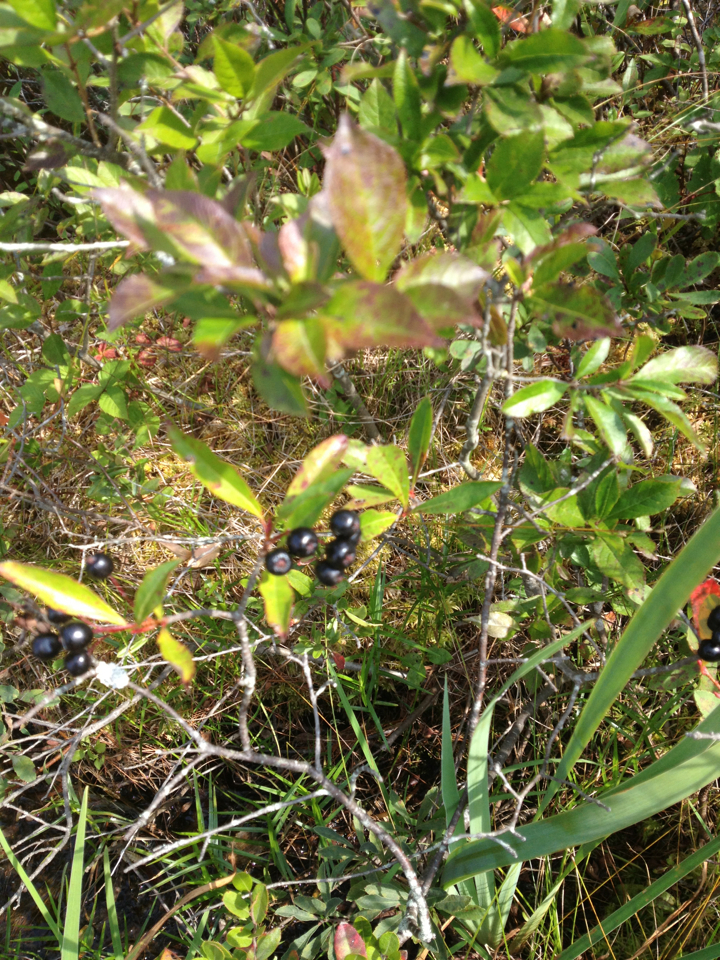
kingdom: Plantae
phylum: Tracheophyta
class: Magnoliopsida
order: Rosales
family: Rosaceae
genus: Aronia
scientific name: Aronia melanocarpa
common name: Black chokeberry
